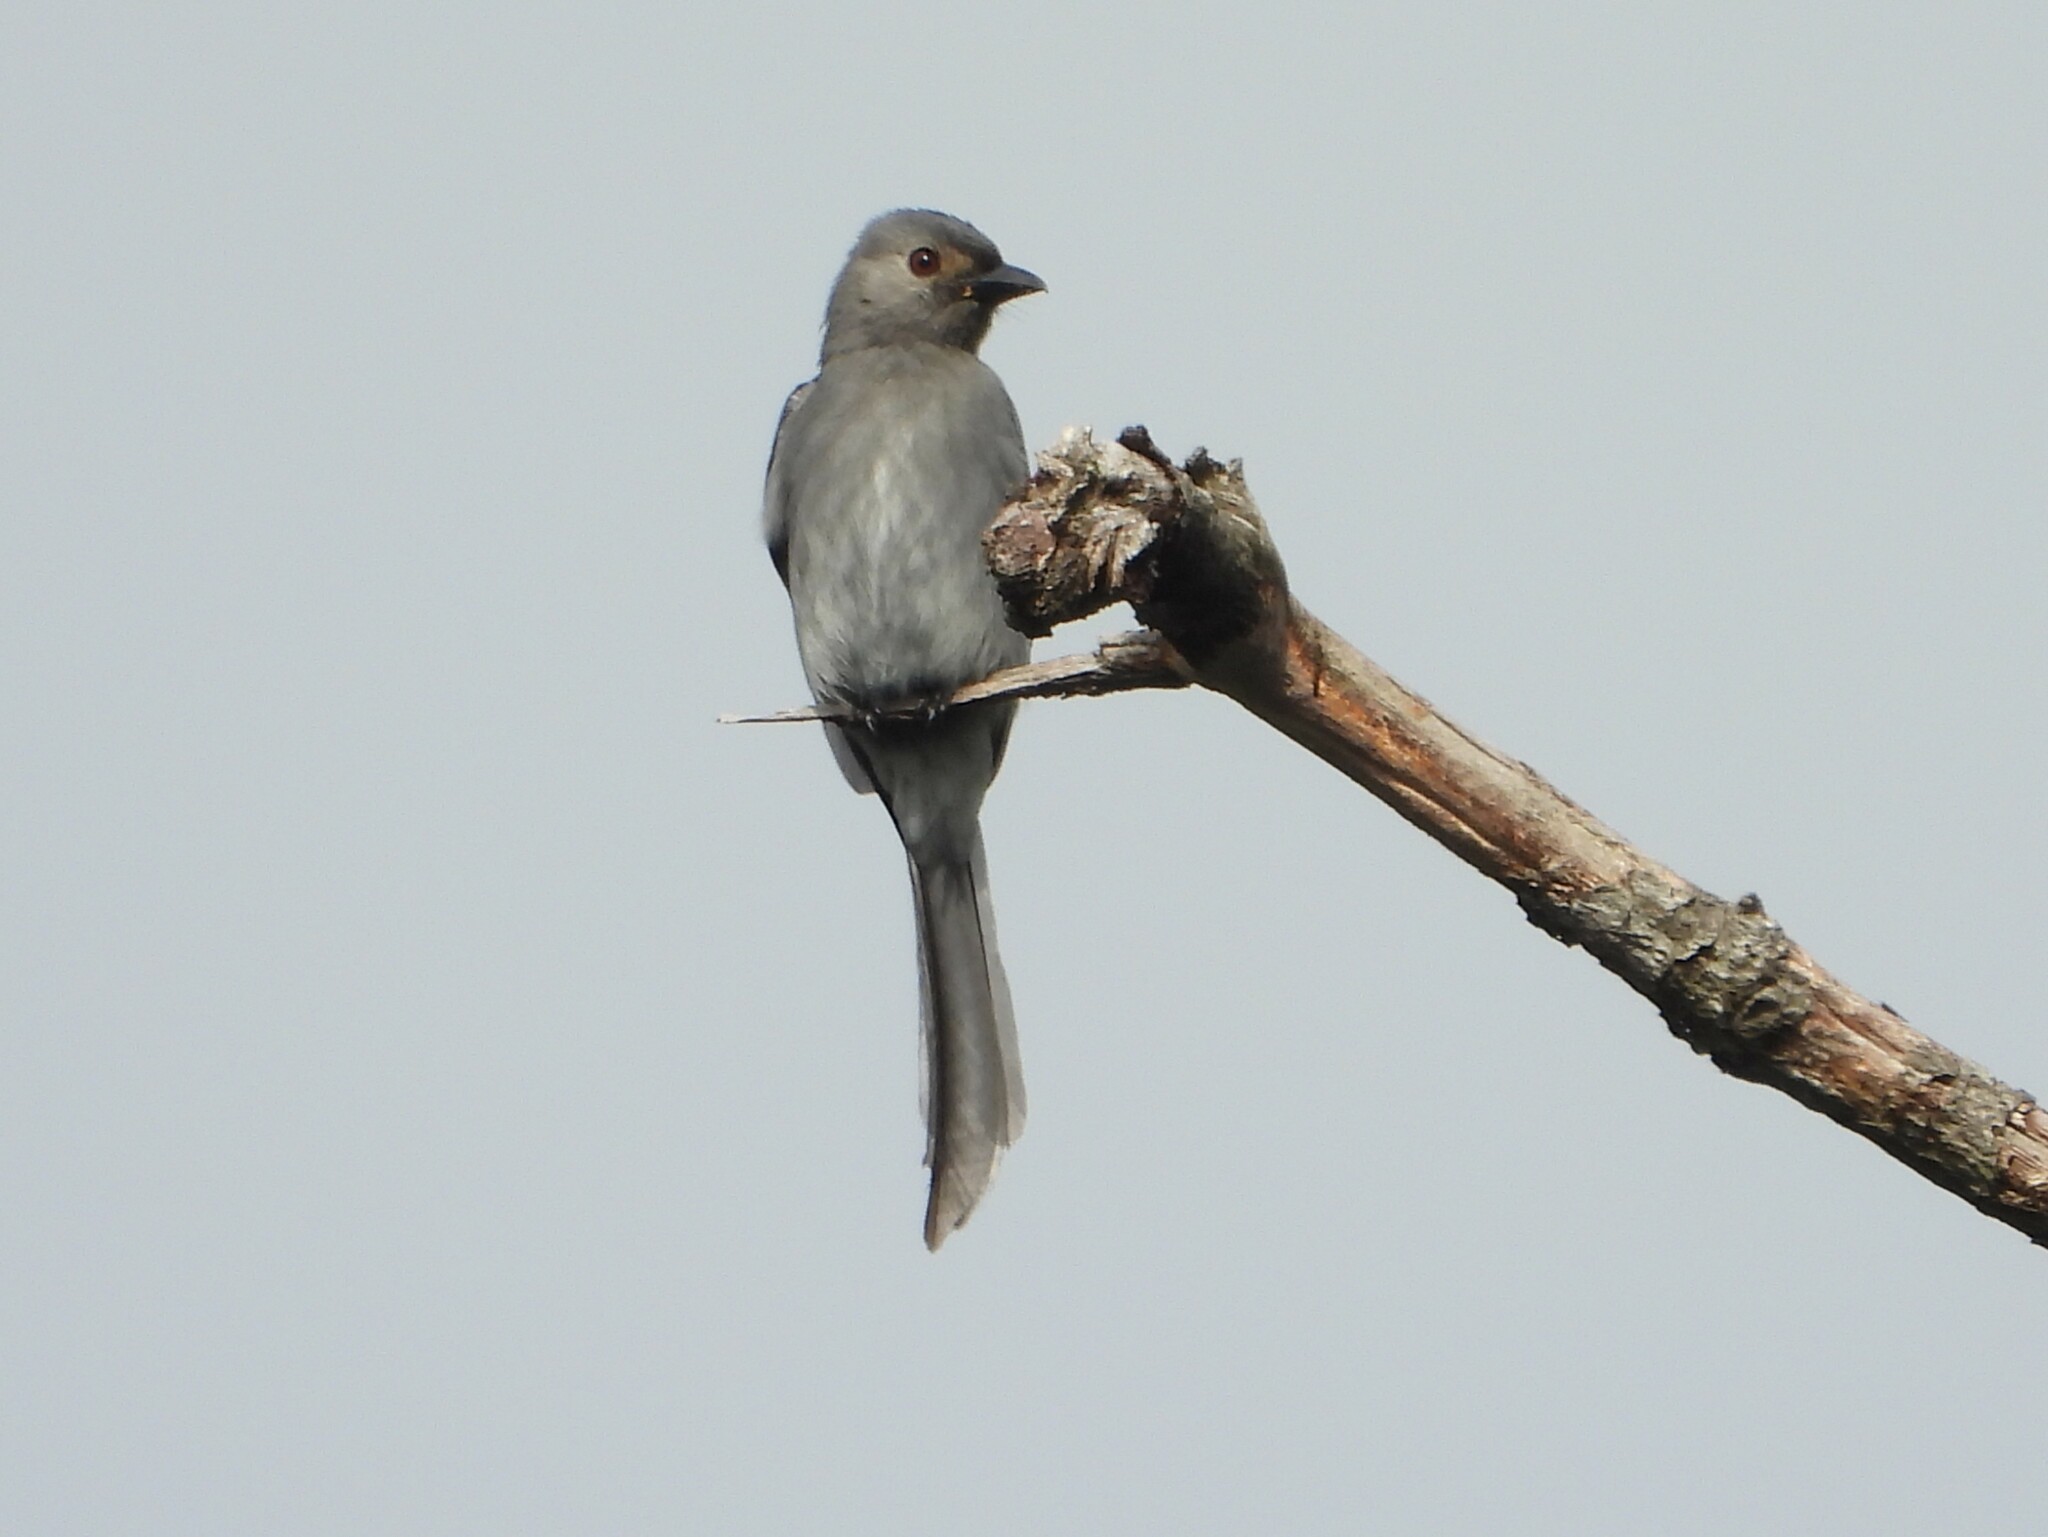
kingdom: Animalia
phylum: Chordata
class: Aves
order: Passeriformes
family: Dicruridae
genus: Dicrurus
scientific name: Dicrurus leucophaeus
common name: Ashy drongo
